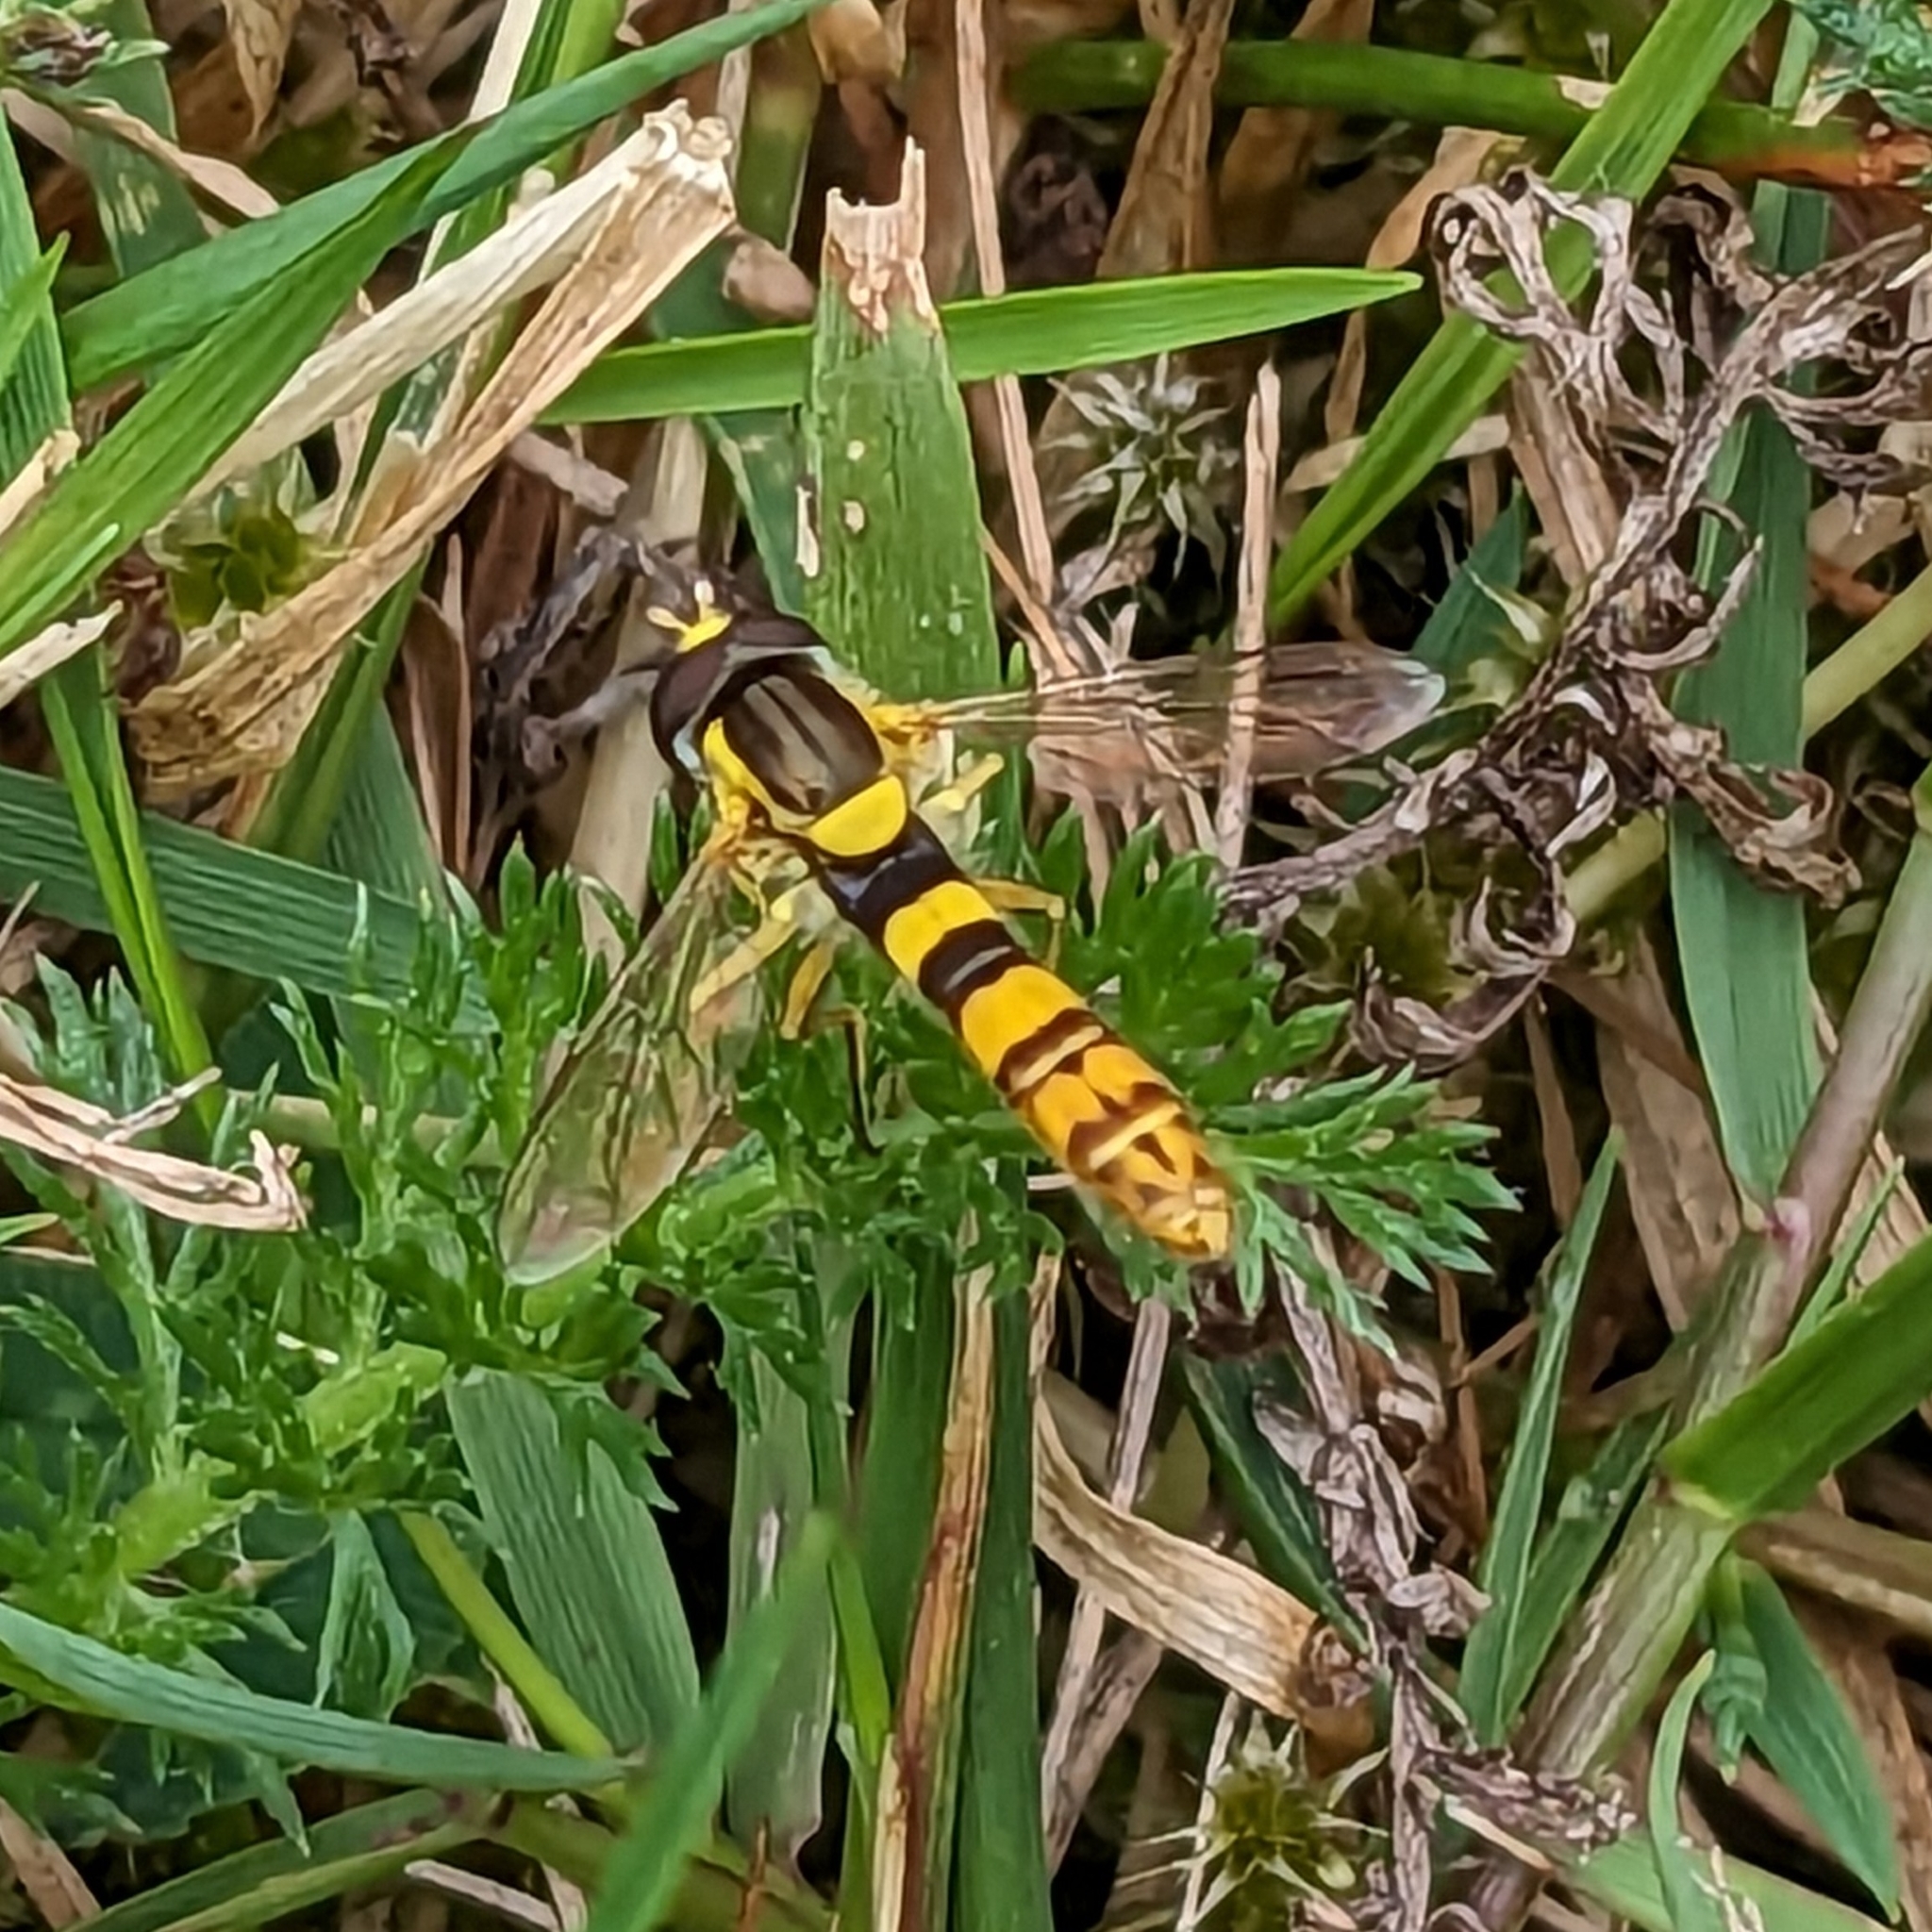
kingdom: Animalia
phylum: Arthropoda
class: Insecta
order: Diptera
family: Syrphidae
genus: Sphaerophoria
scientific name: Sphaerophoria scripta
